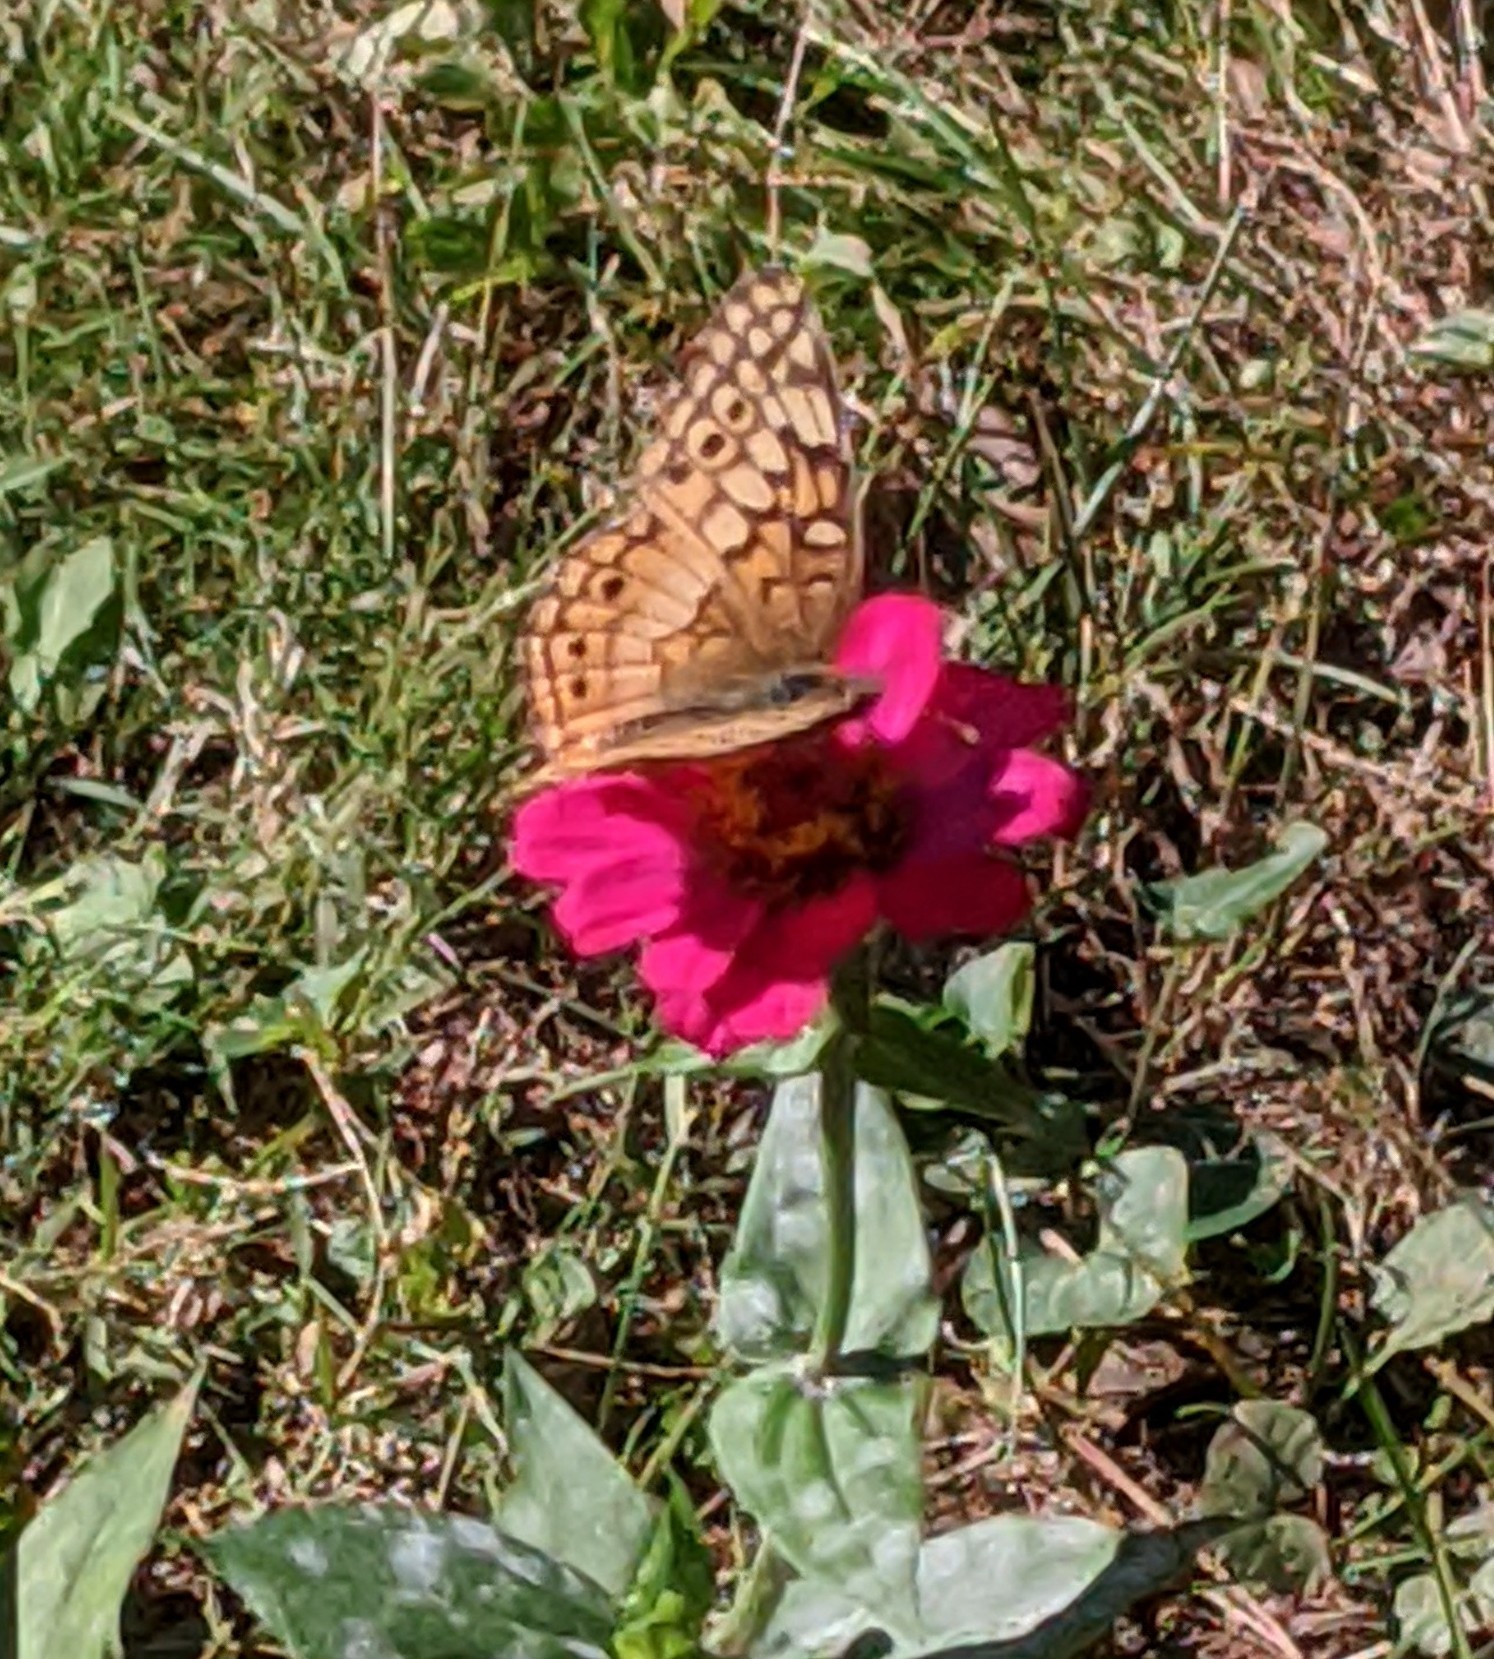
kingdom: Animalia
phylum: Arthropoda
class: Insecta
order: Lepidoptera
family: Nymphalidae
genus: Euptoieta
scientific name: Euptoieta claudia
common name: Variegated fritillary
